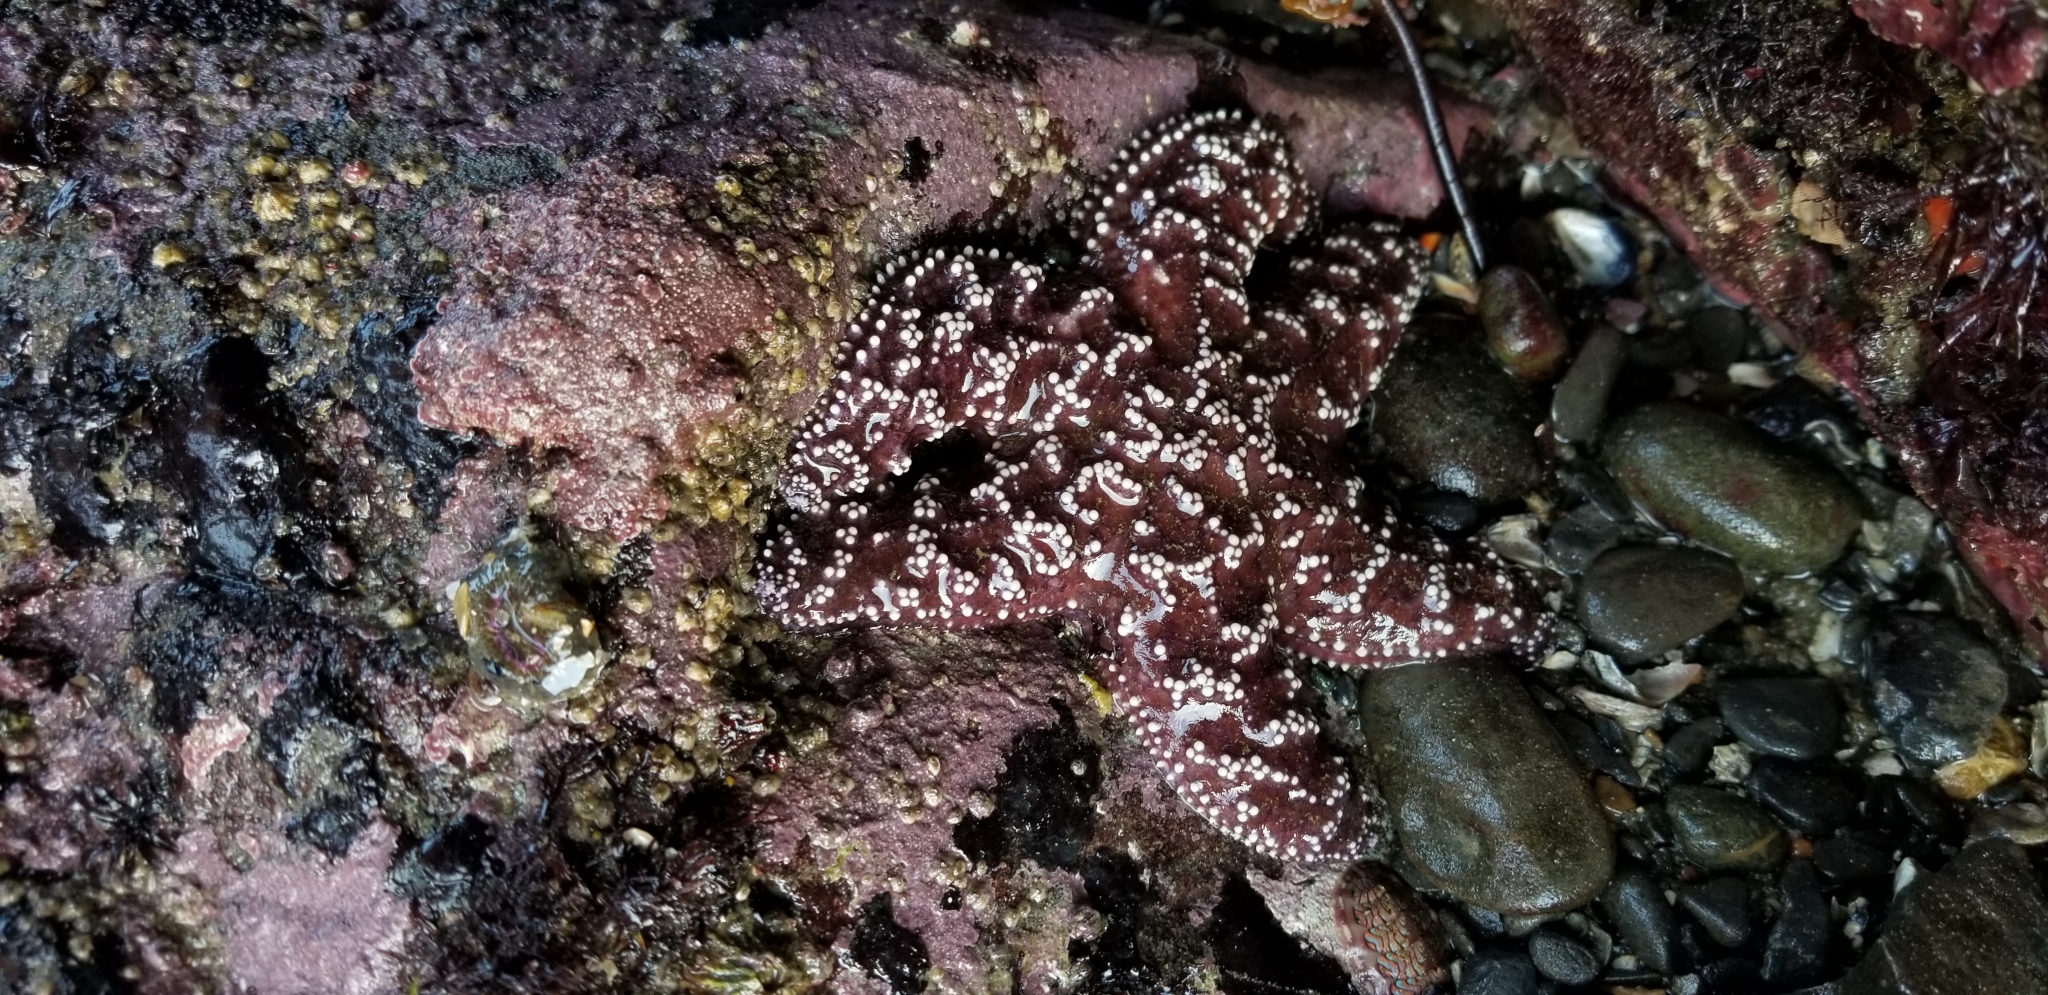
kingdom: Animalia
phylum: Echinodermata
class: Asteroidea
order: Forcipulatida
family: Asteriidae
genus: Pisaster
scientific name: Pisaster ochraceus
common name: Ochre stars
